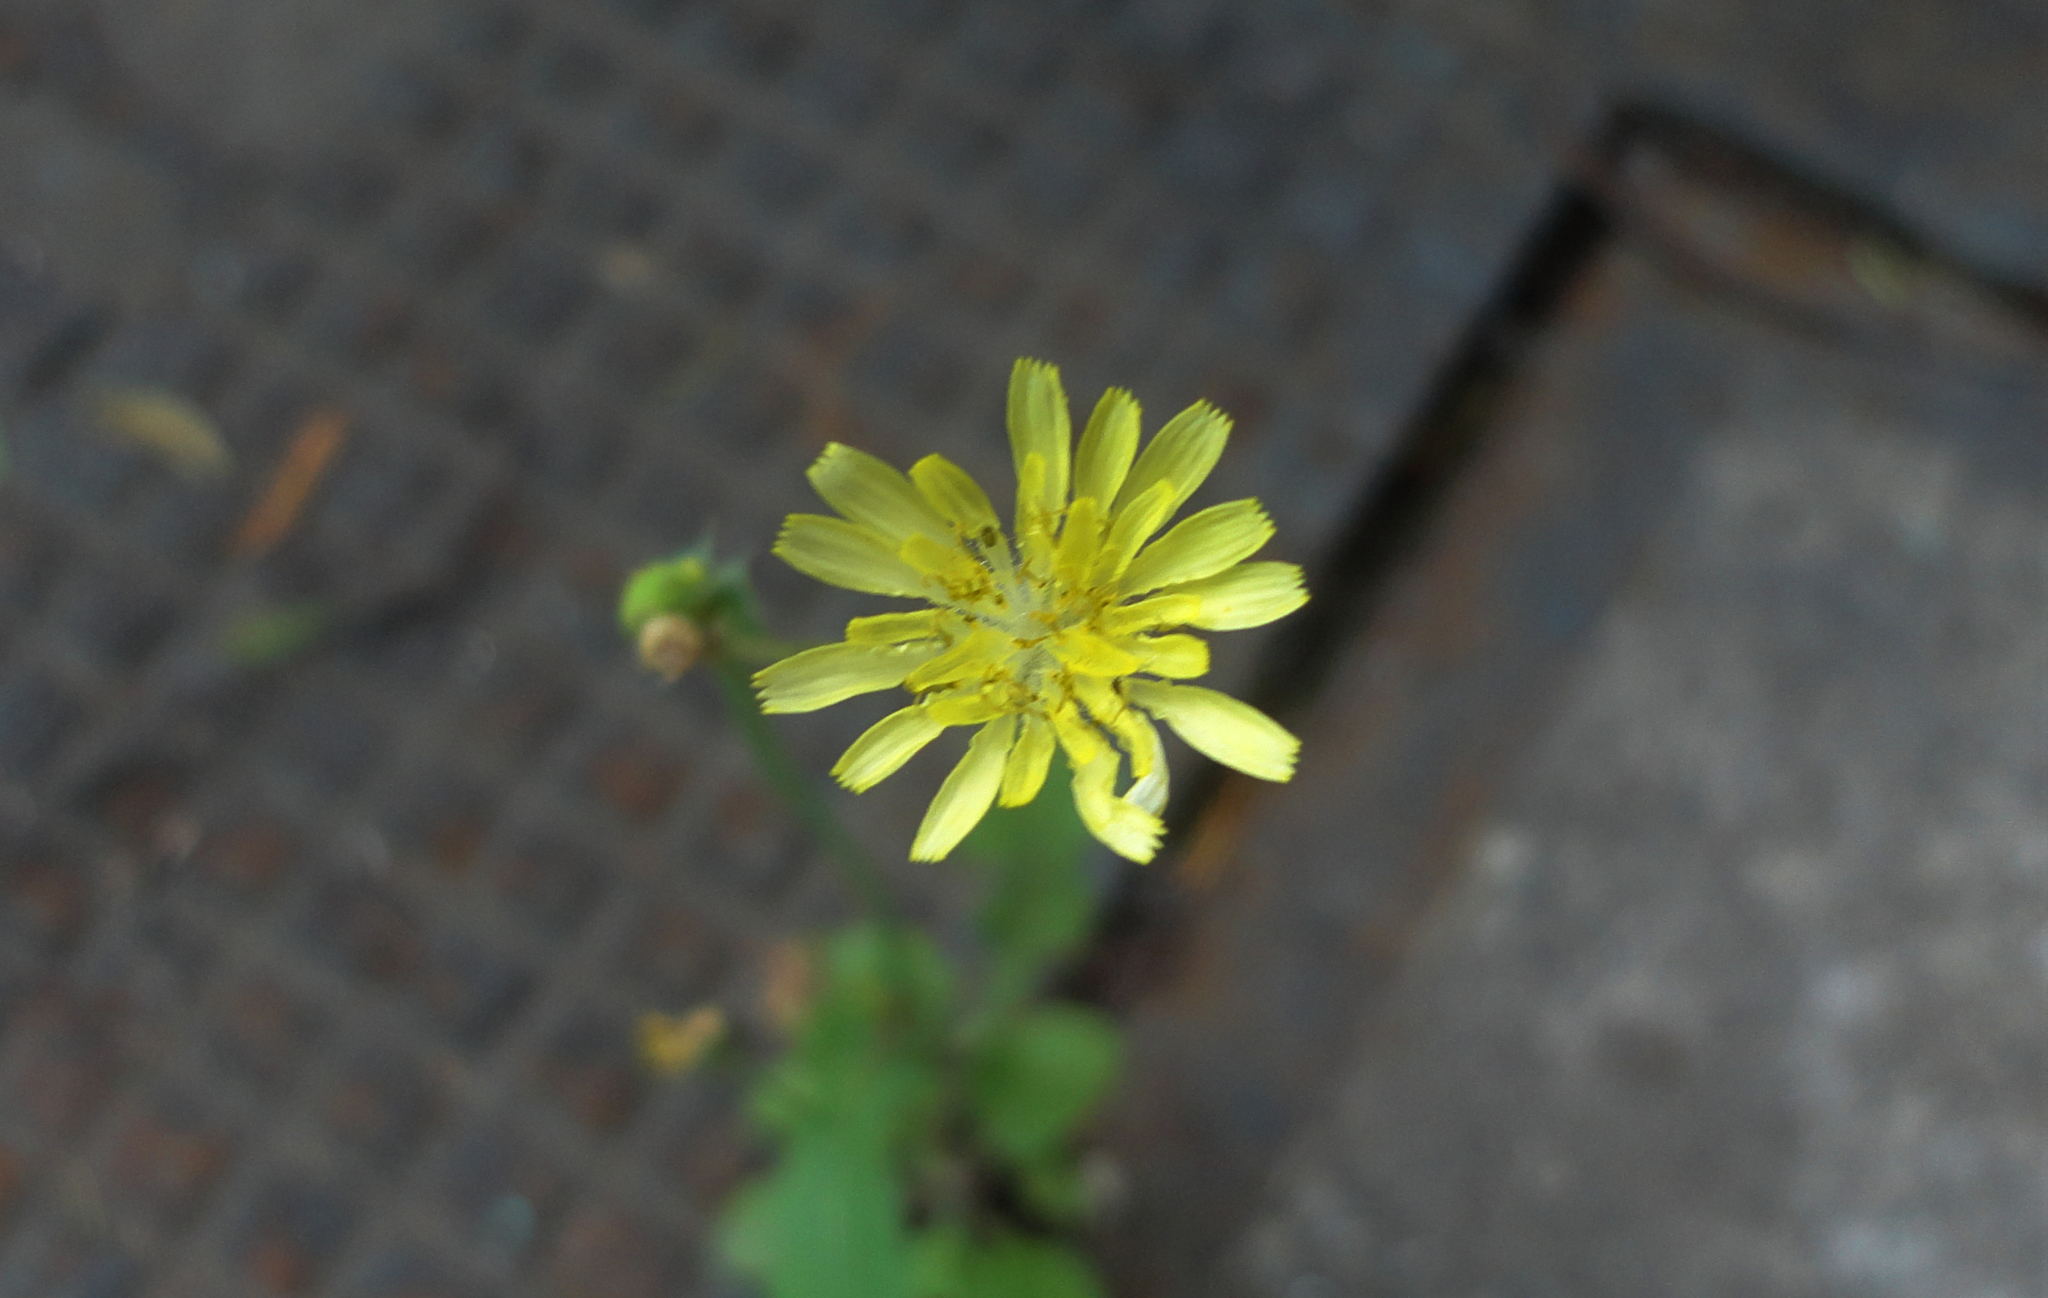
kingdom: Plantae
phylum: Tracheophyta
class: Magnoliopsida
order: Asterales
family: Asteraceae
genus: Youngia
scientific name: Youngia japonica
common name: Oriental false hawksbeard
